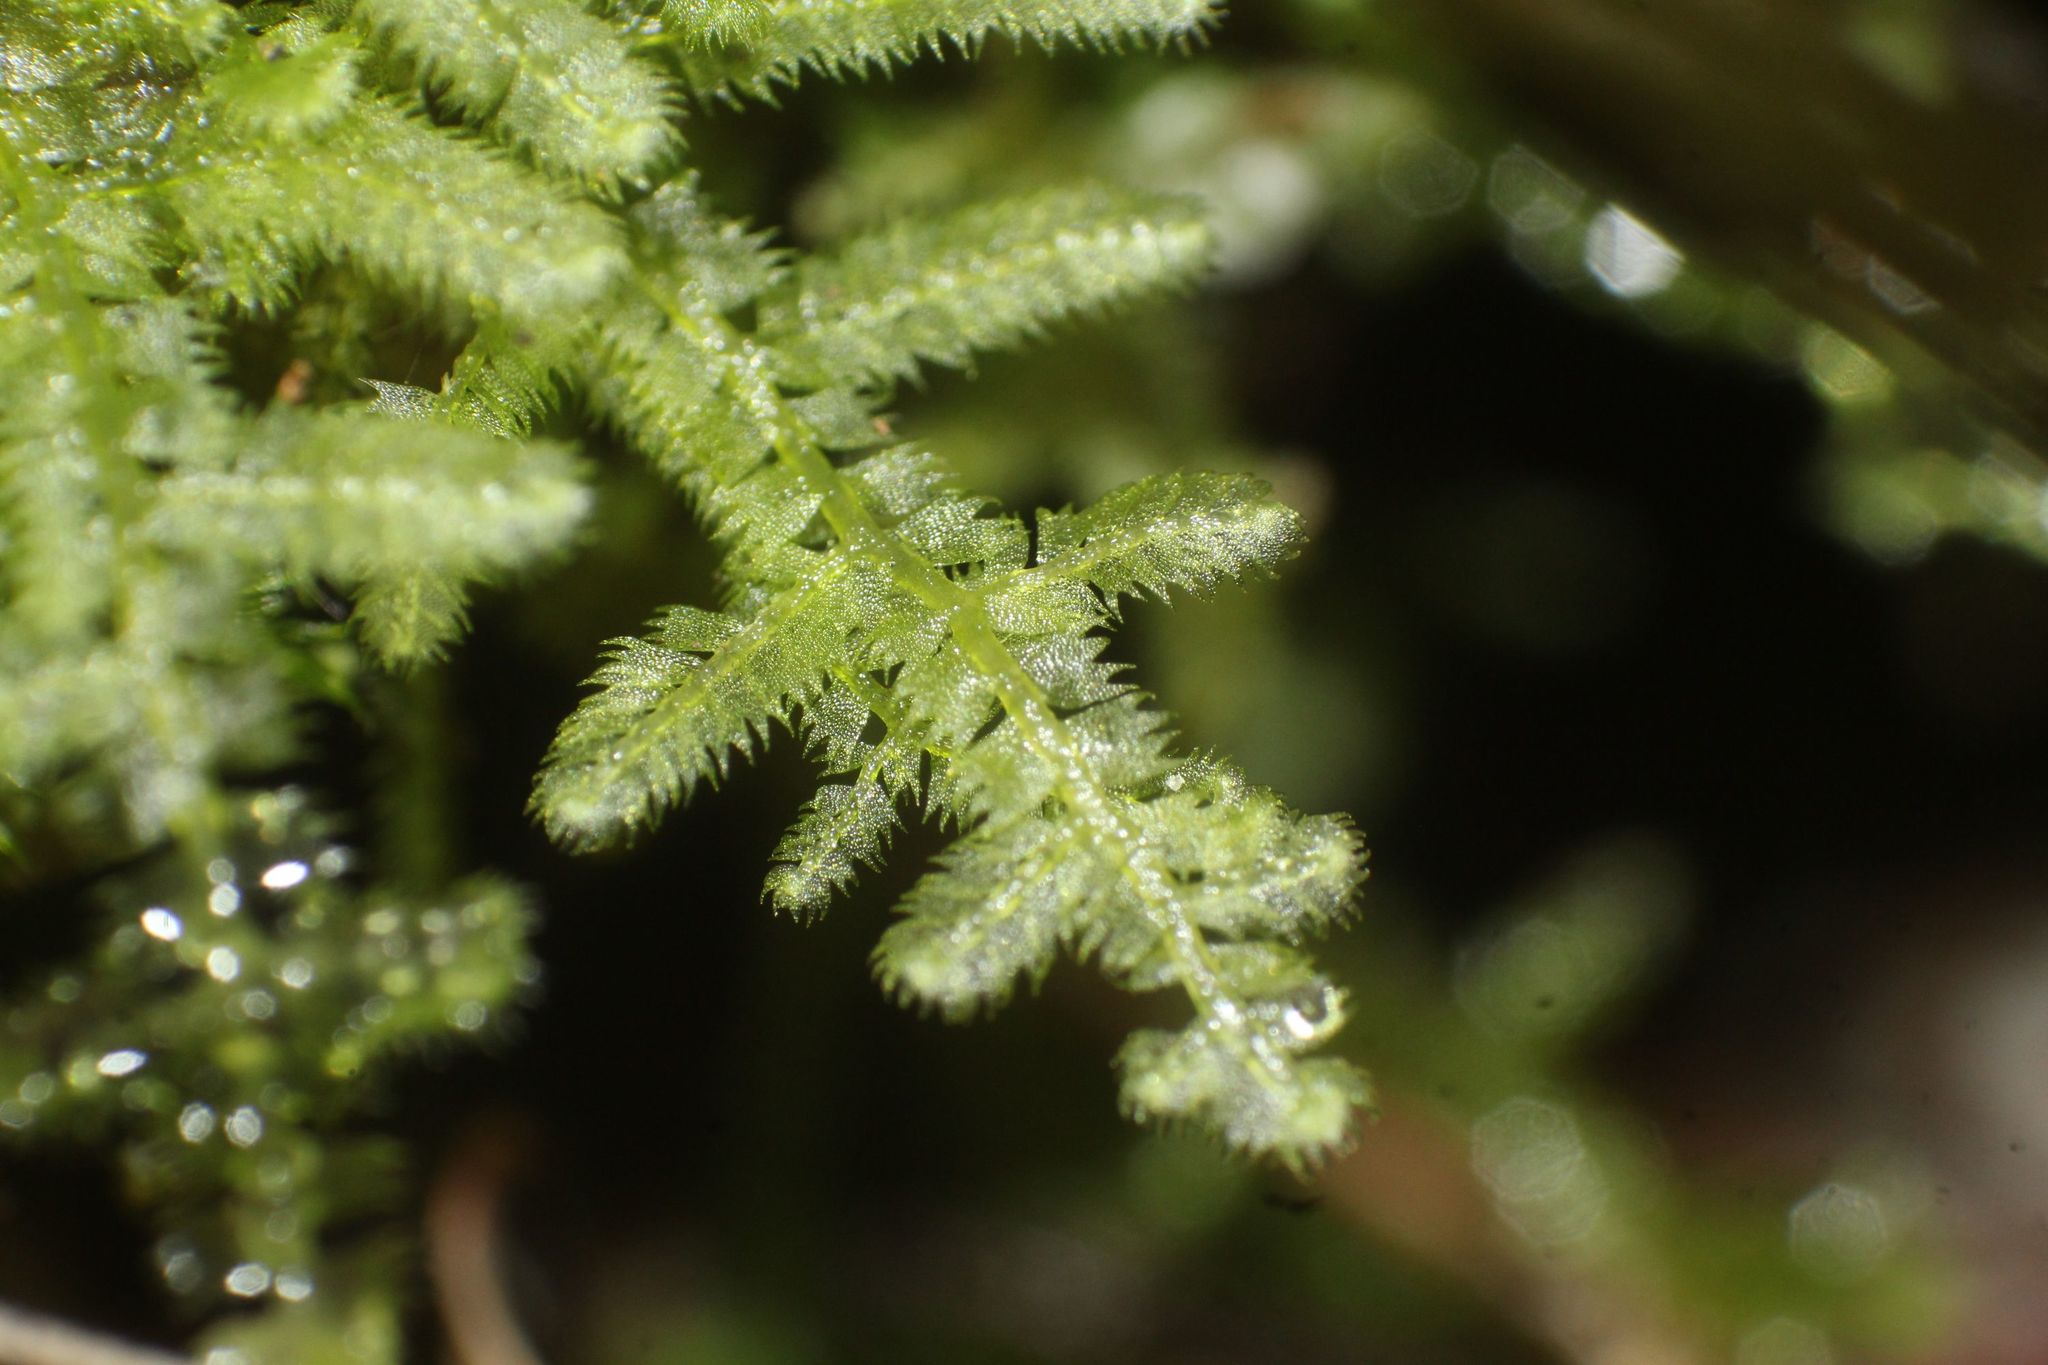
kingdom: Plantae
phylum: Marchantiophyta
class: Jungermanniopsida
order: Jungermanniales
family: Lepidoziaceae
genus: Ceramanus
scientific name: Ceramanus clatritexta
